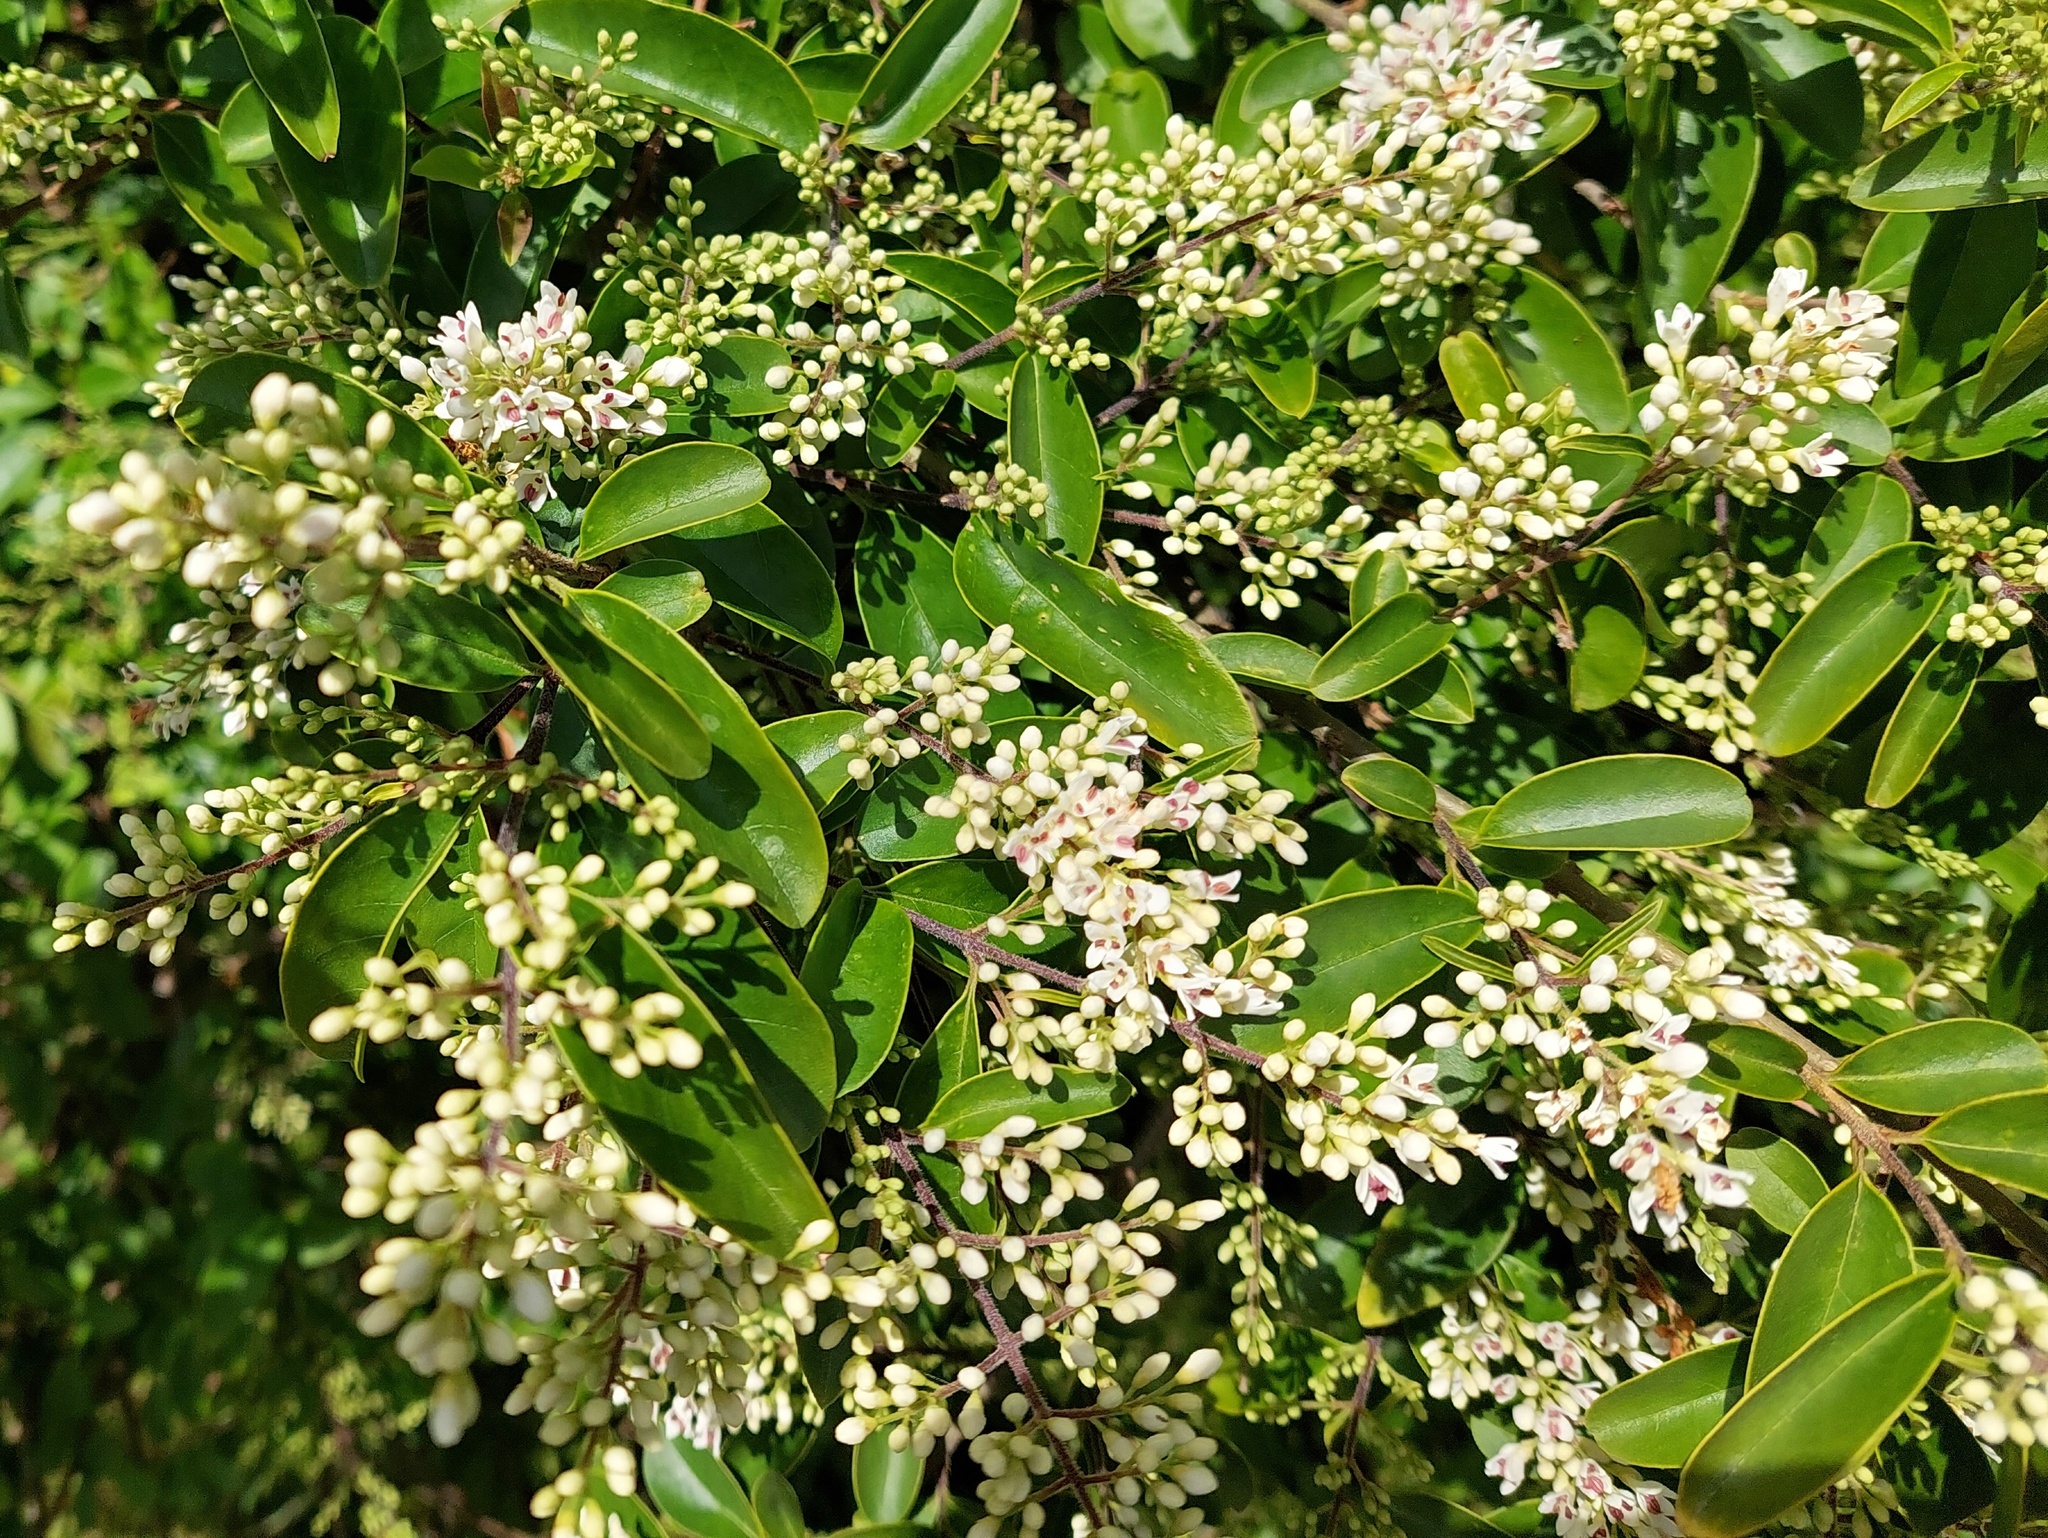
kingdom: Plantae
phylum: Tracheophyta
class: Magnoliopsida
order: Lamiales
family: Oleaceae
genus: Ligustrum
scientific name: Ligustrum sinense
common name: Chinese privet
